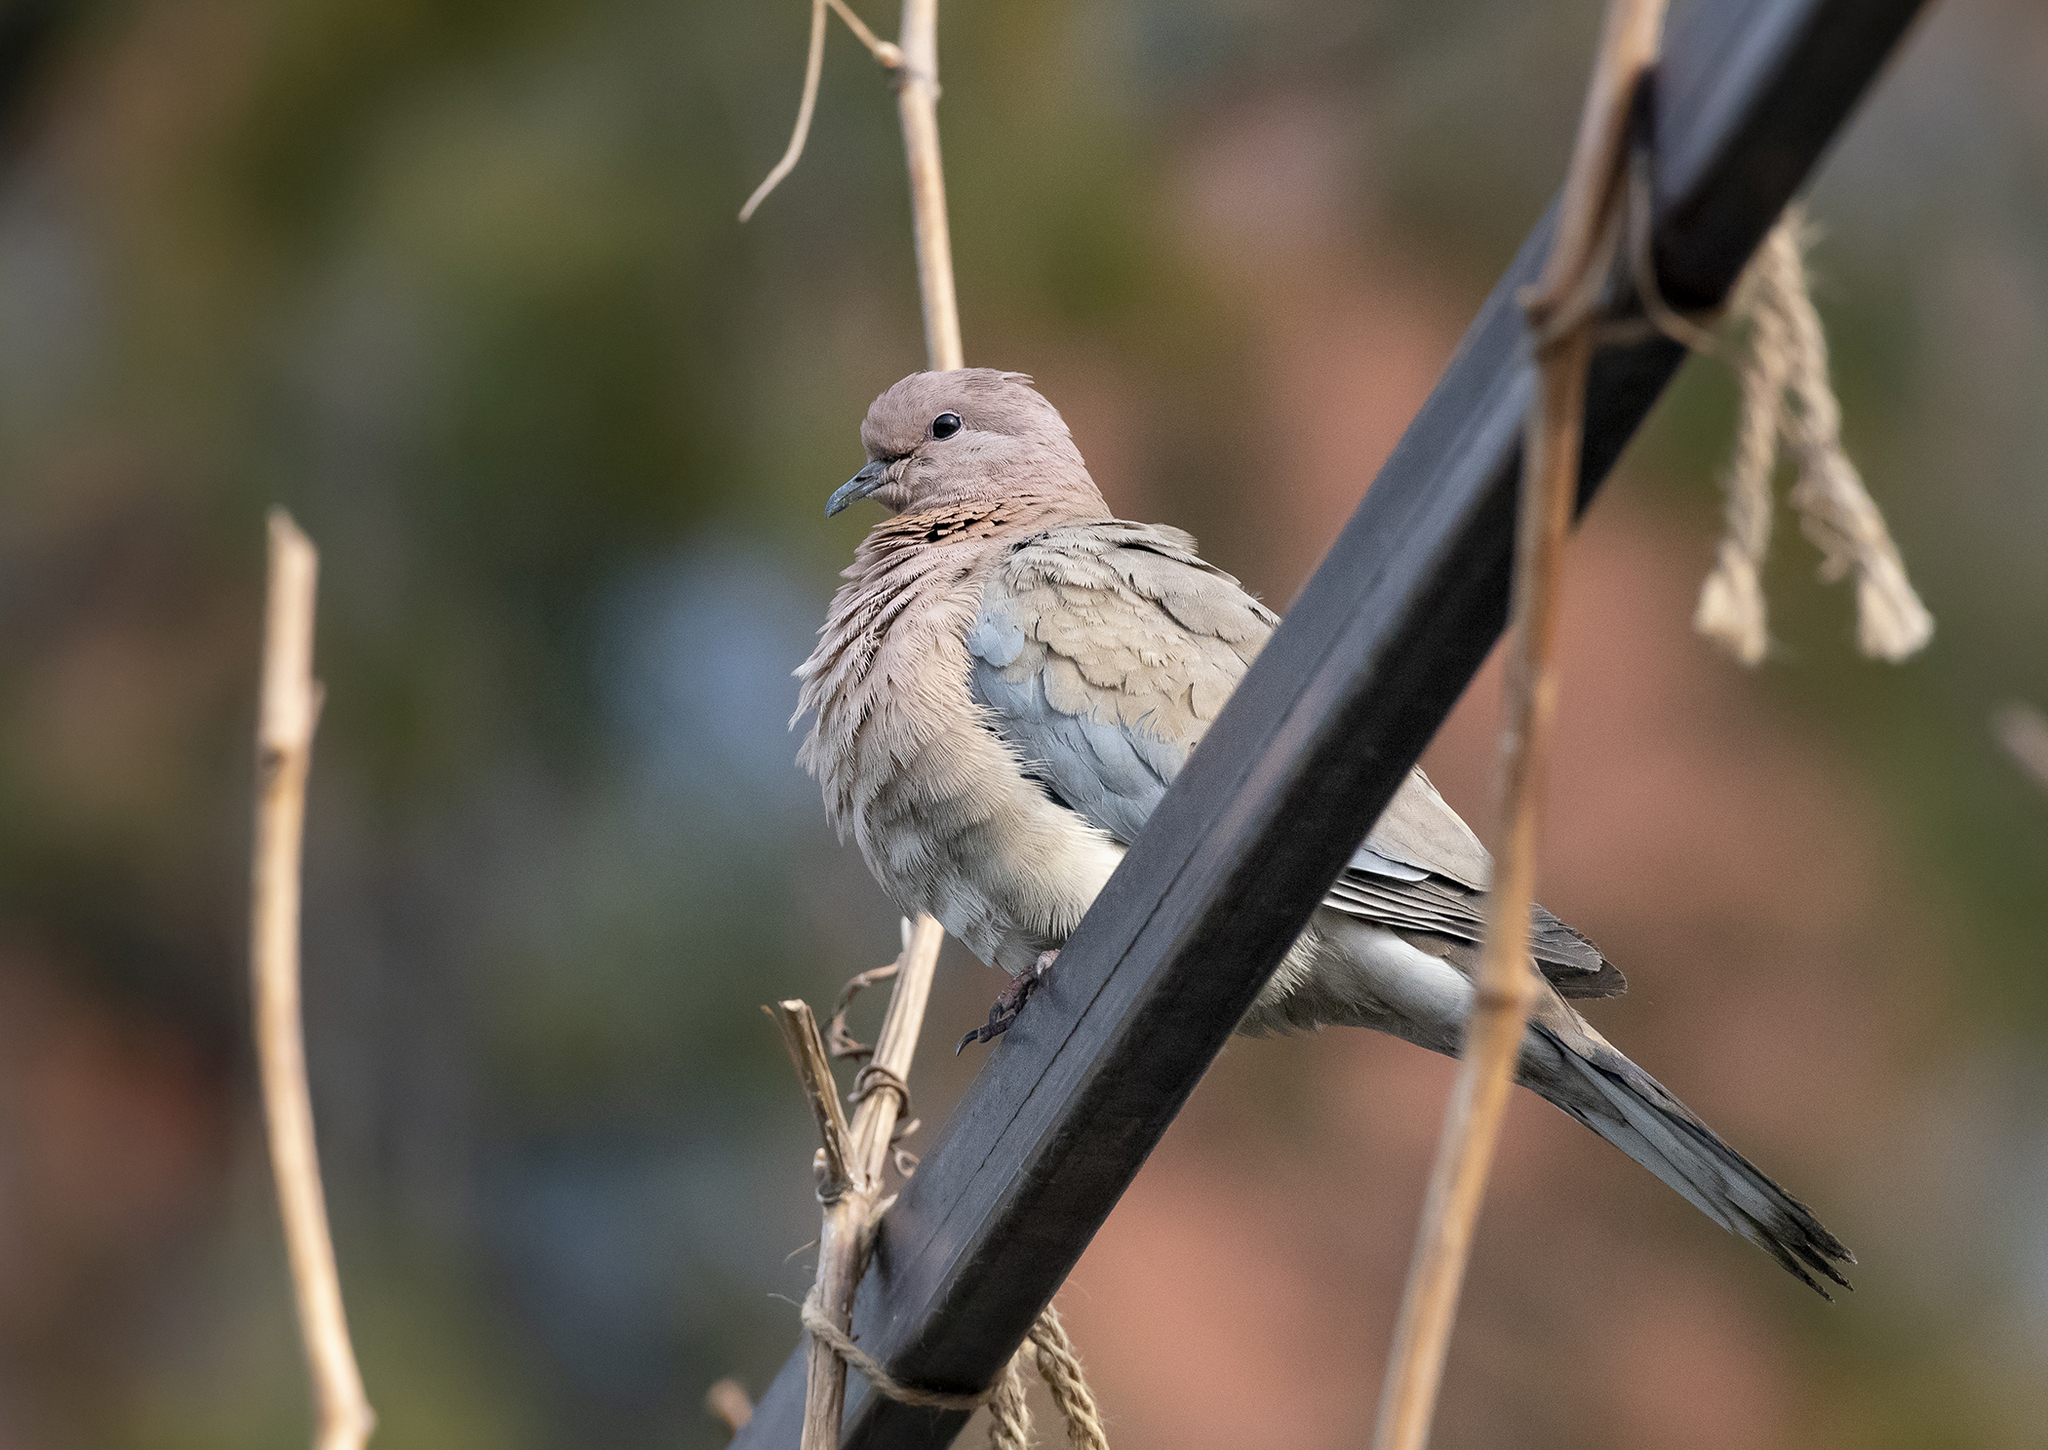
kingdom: Animalia
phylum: Chordata
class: Aves
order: Columbiformes
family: Columbidae
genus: Spilopelia
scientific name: Spilopelia senegalensis
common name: Laughing dove
